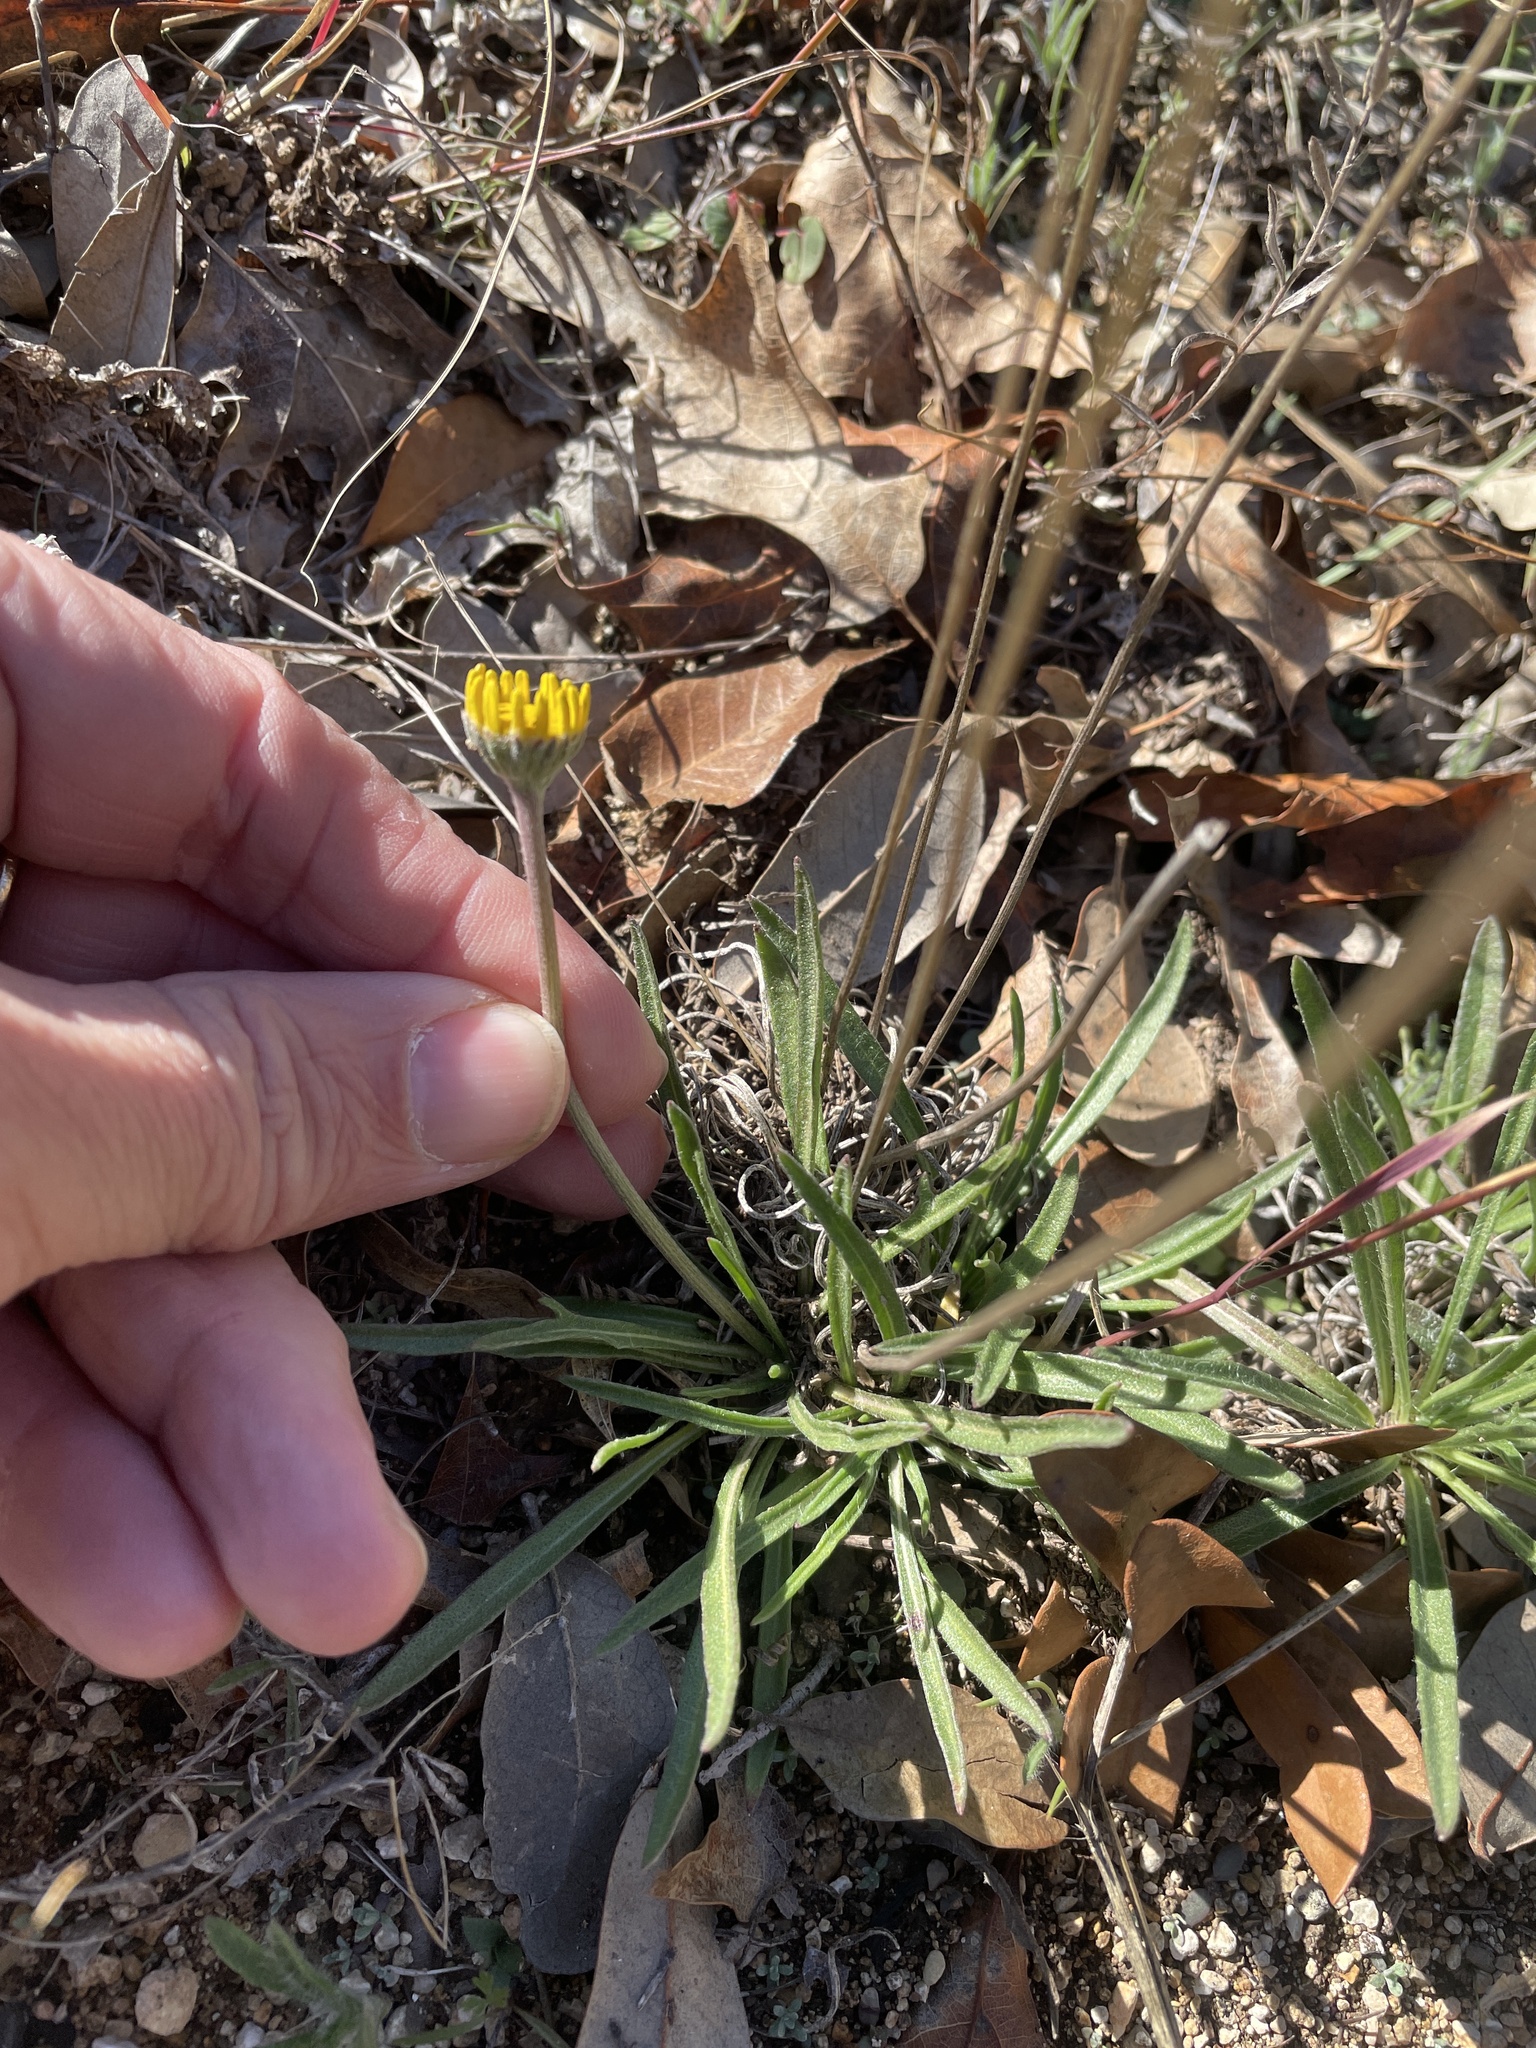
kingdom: Plantae
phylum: Tracheophyta
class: Magnoliopsida
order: Asterales
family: Asteraceae
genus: Tetraneuris
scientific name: Tetraneuris scaposa
